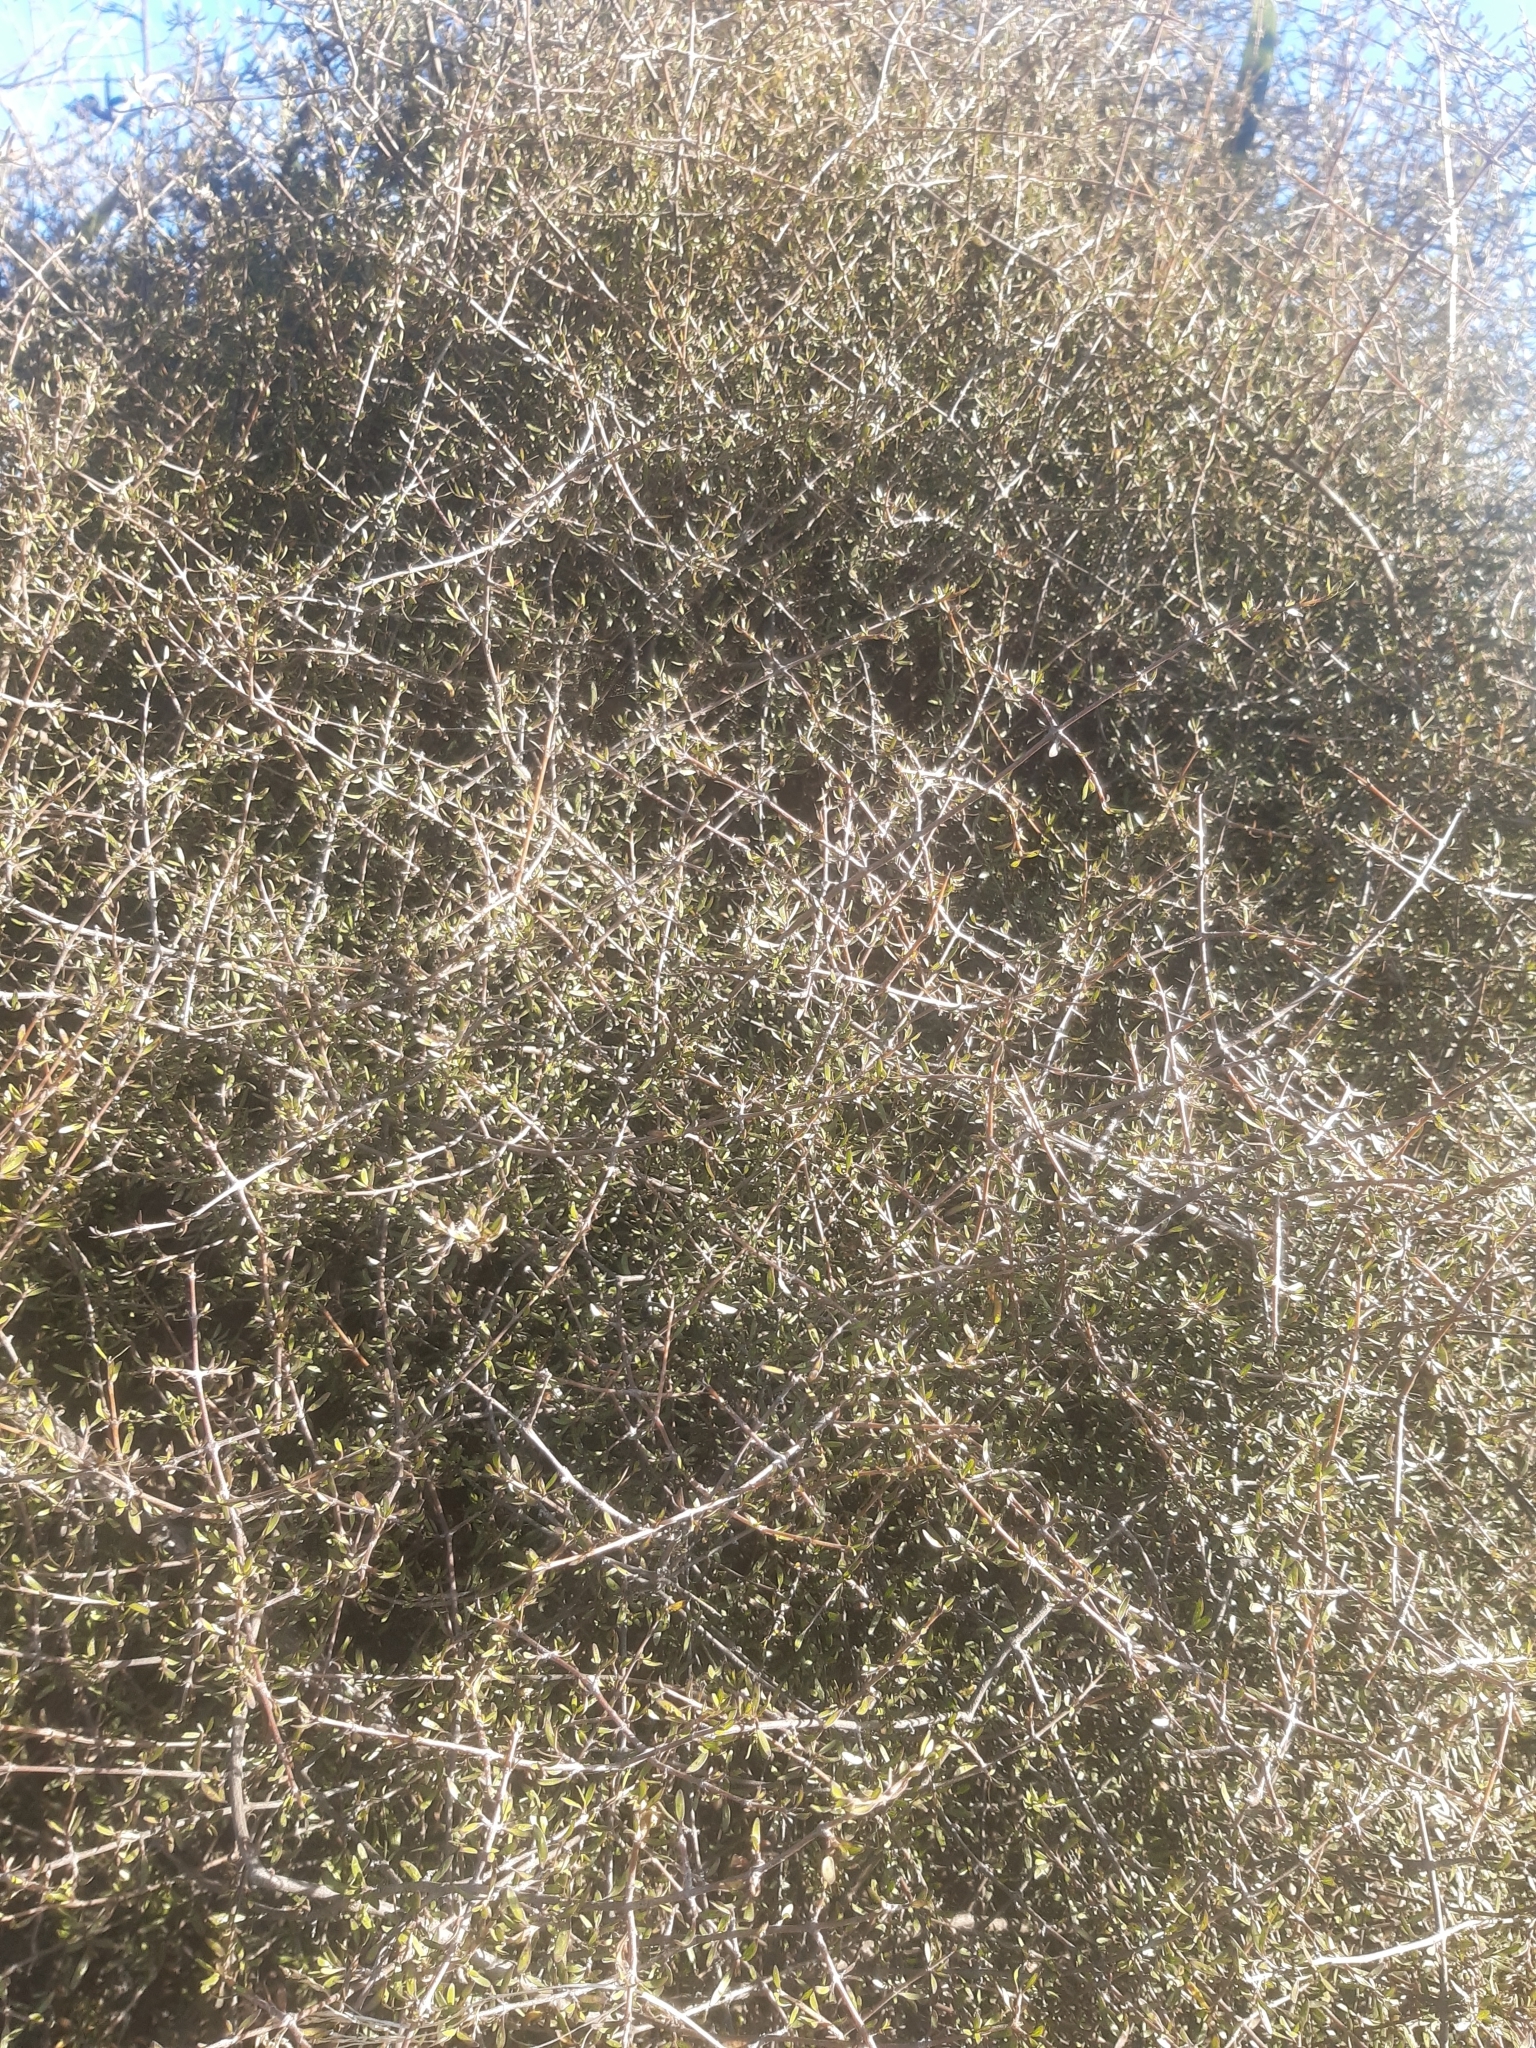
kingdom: Plantae
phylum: Tracheophyta
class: Magnoliopsida
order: Gentianales
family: Rubiaceae
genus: Coprosma
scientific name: Coprosma propinqua
